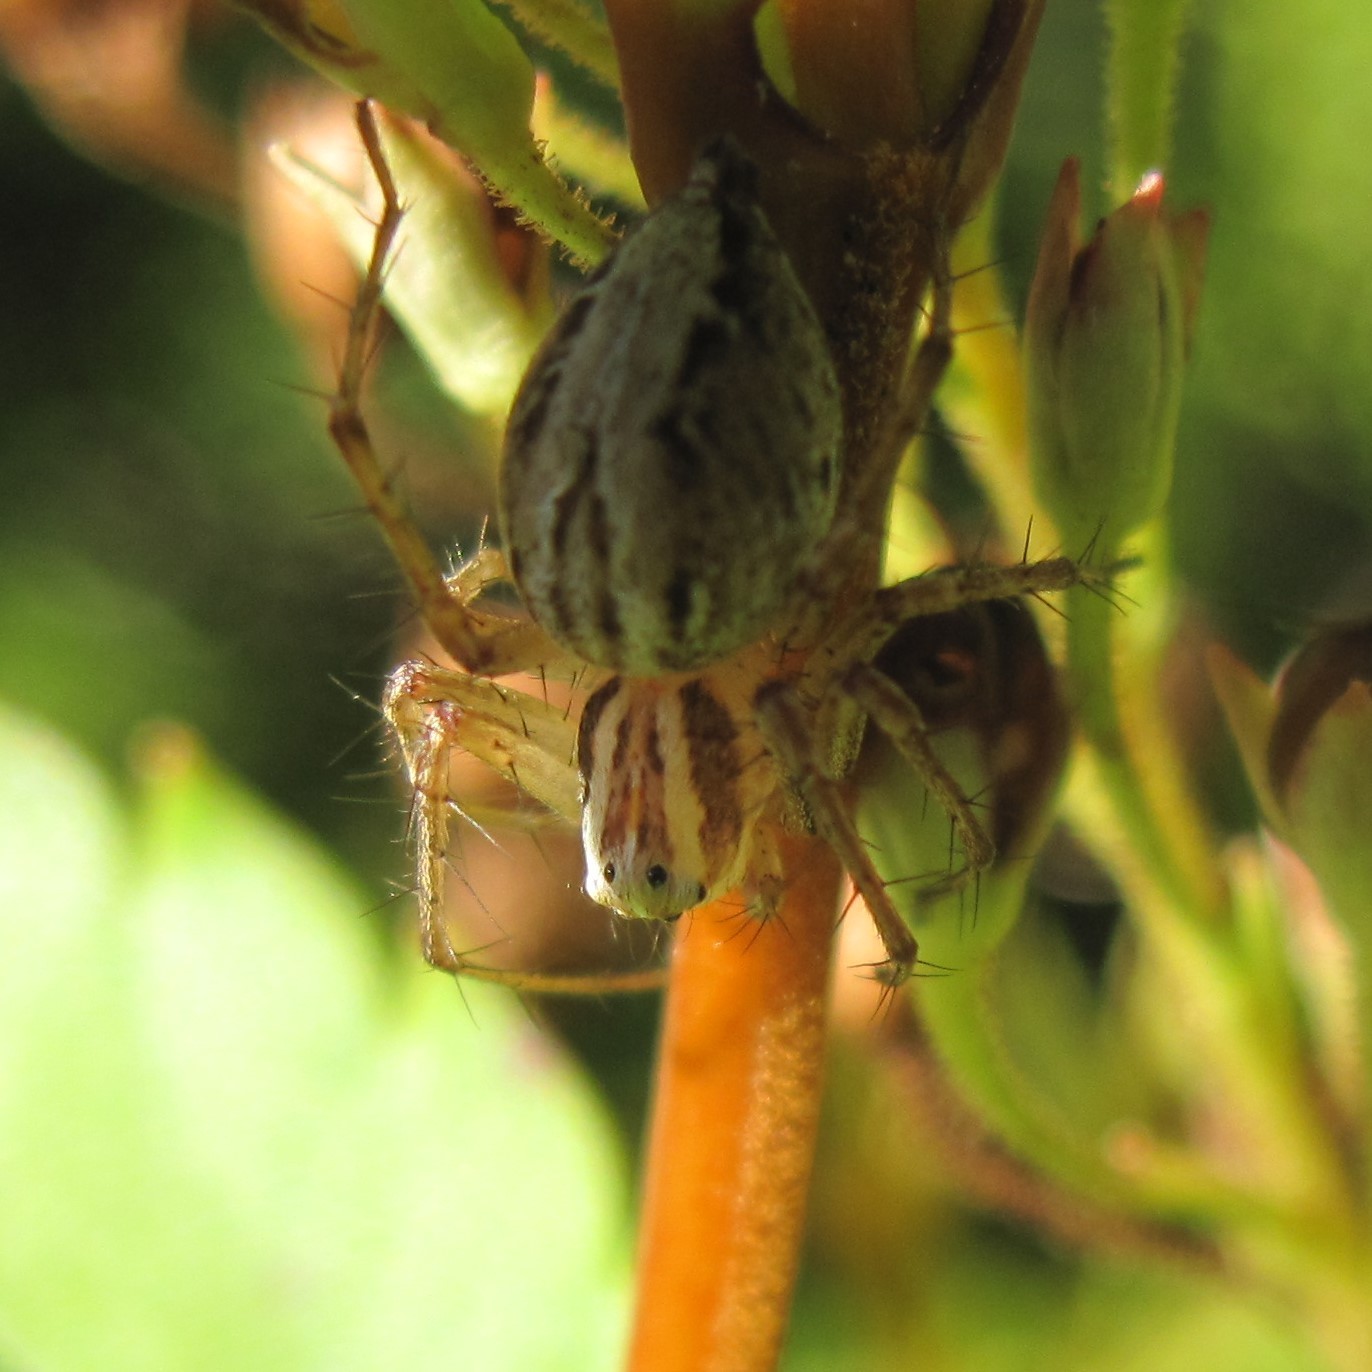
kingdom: Animalia
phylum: Arthropoda
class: Arachnida
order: Araneae
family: Oxyopidae
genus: Oxyopes
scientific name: Oxyopes gracilipes
